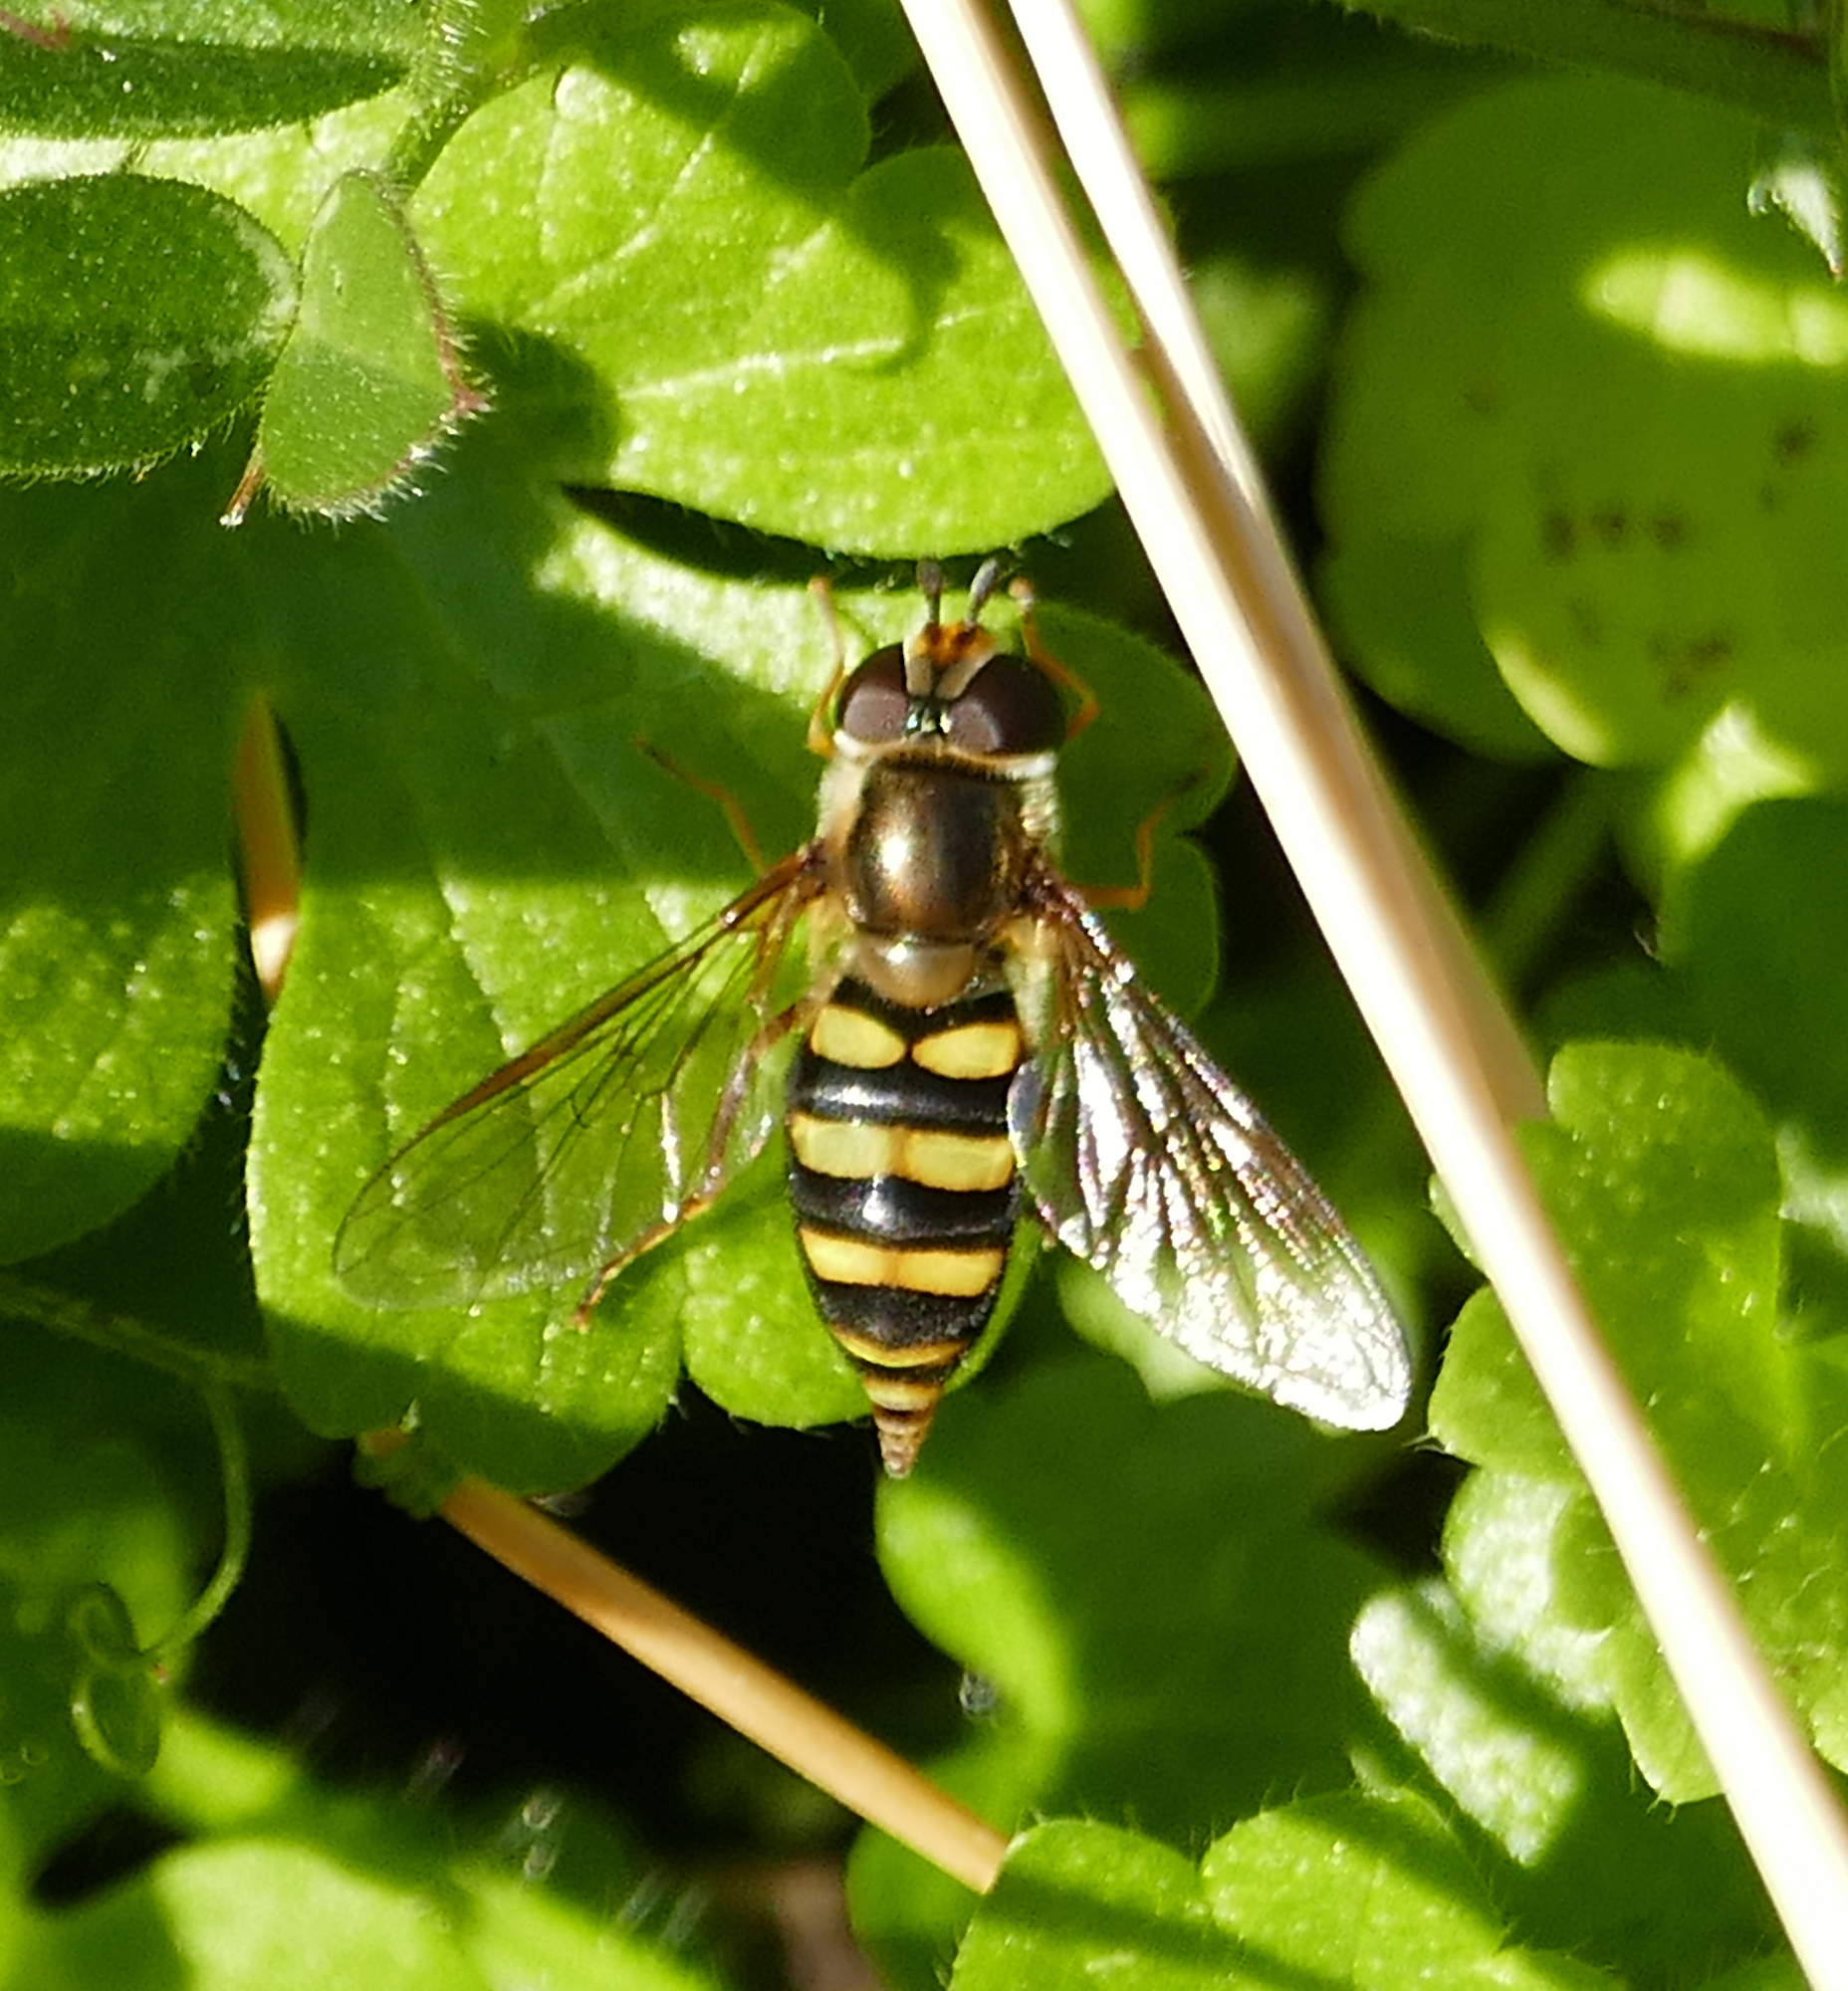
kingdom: Animalia
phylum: Arthropoda
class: Insecta
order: Diptera
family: Syrphidae
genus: Eupeodes
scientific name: Eupeodes
